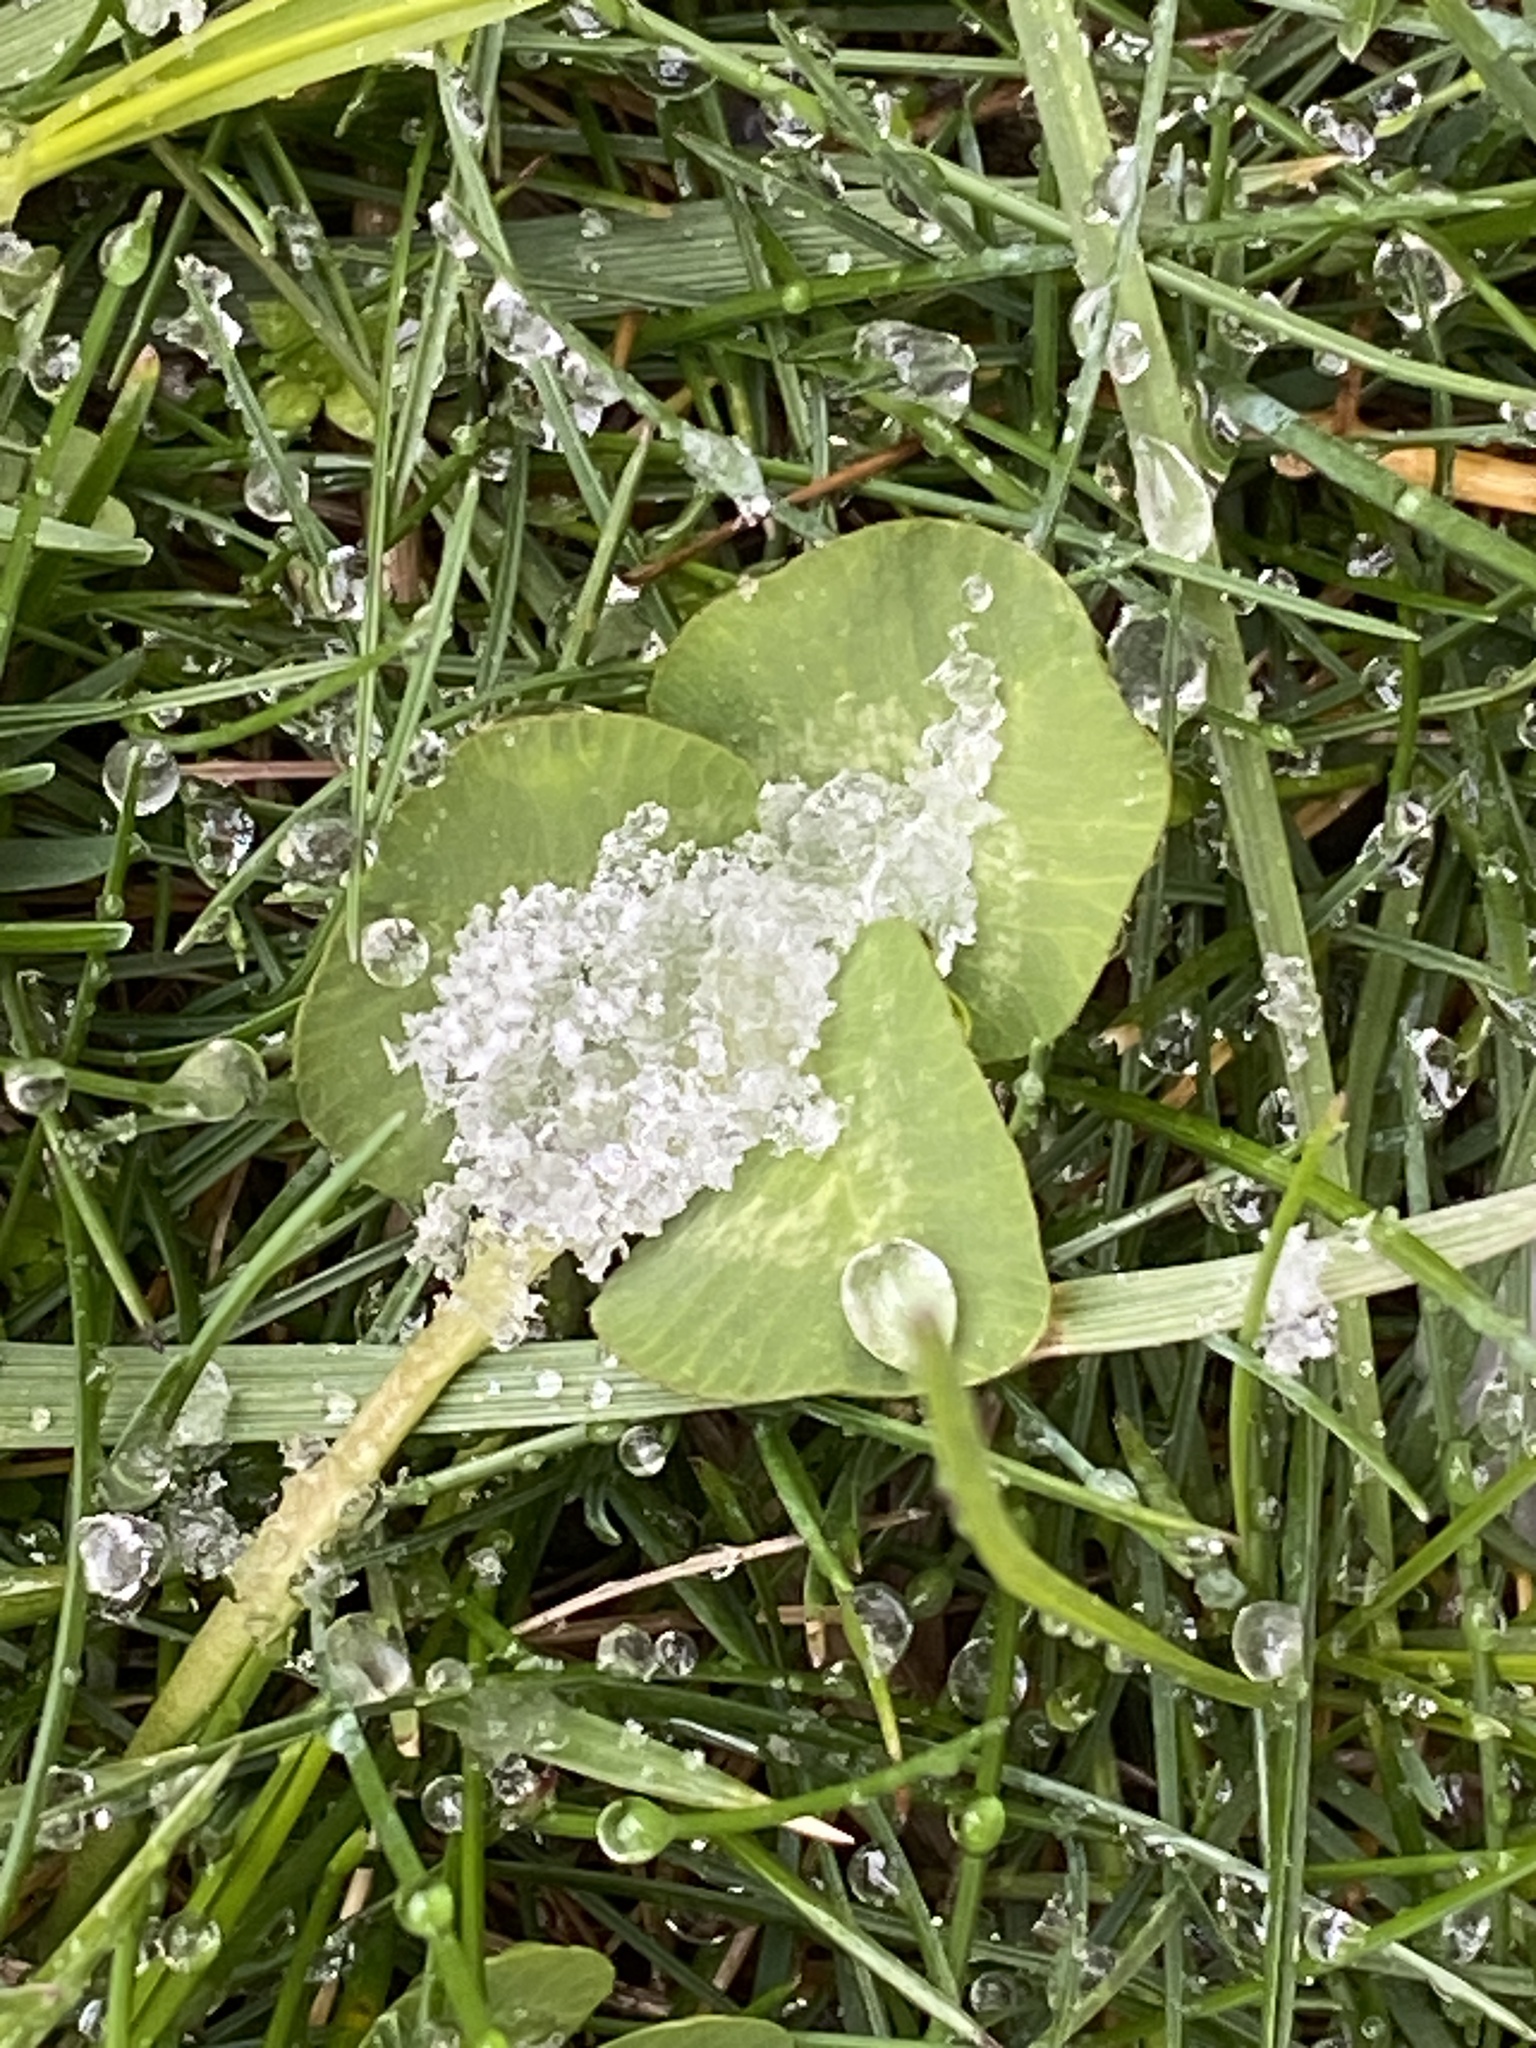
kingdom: Plantae
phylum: Tracheophyta
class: Magnoliopsida
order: Fabales
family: Fabaceae
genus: Trifolium
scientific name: Trifolium repens
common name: White clover
